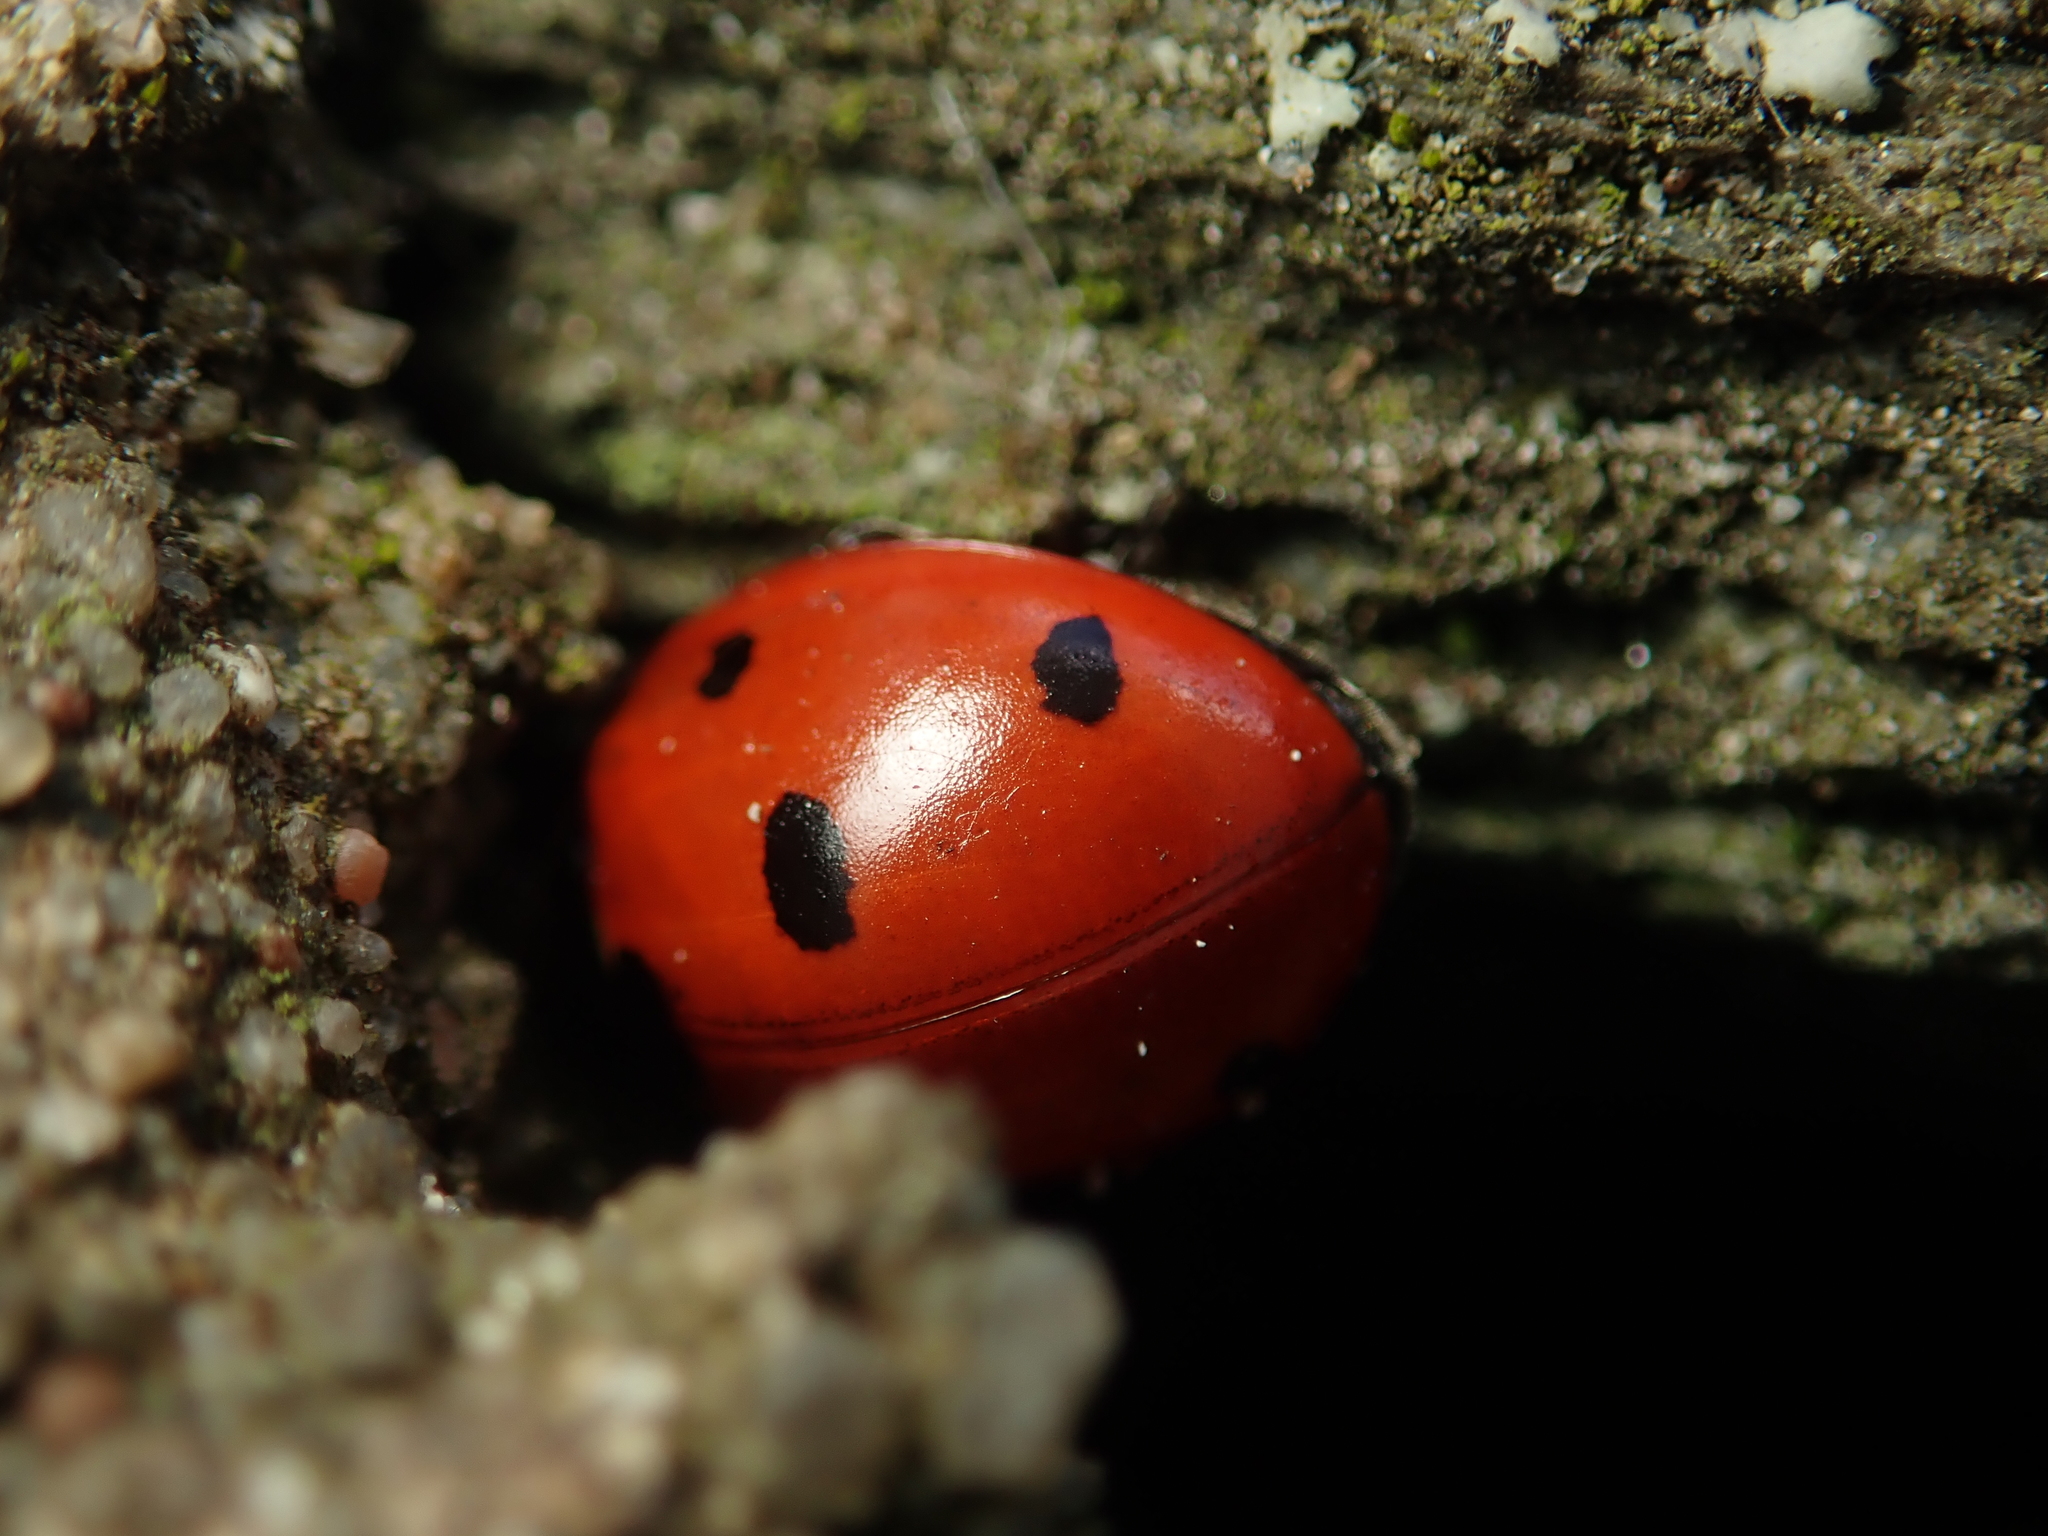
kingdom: Animalia
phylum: Arthropoda
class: Insecta
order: Coleoptera
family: Coccinellidae
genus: Coccinella
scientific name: Coccinella septempunctata
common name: Sevenspotted lady beetle
